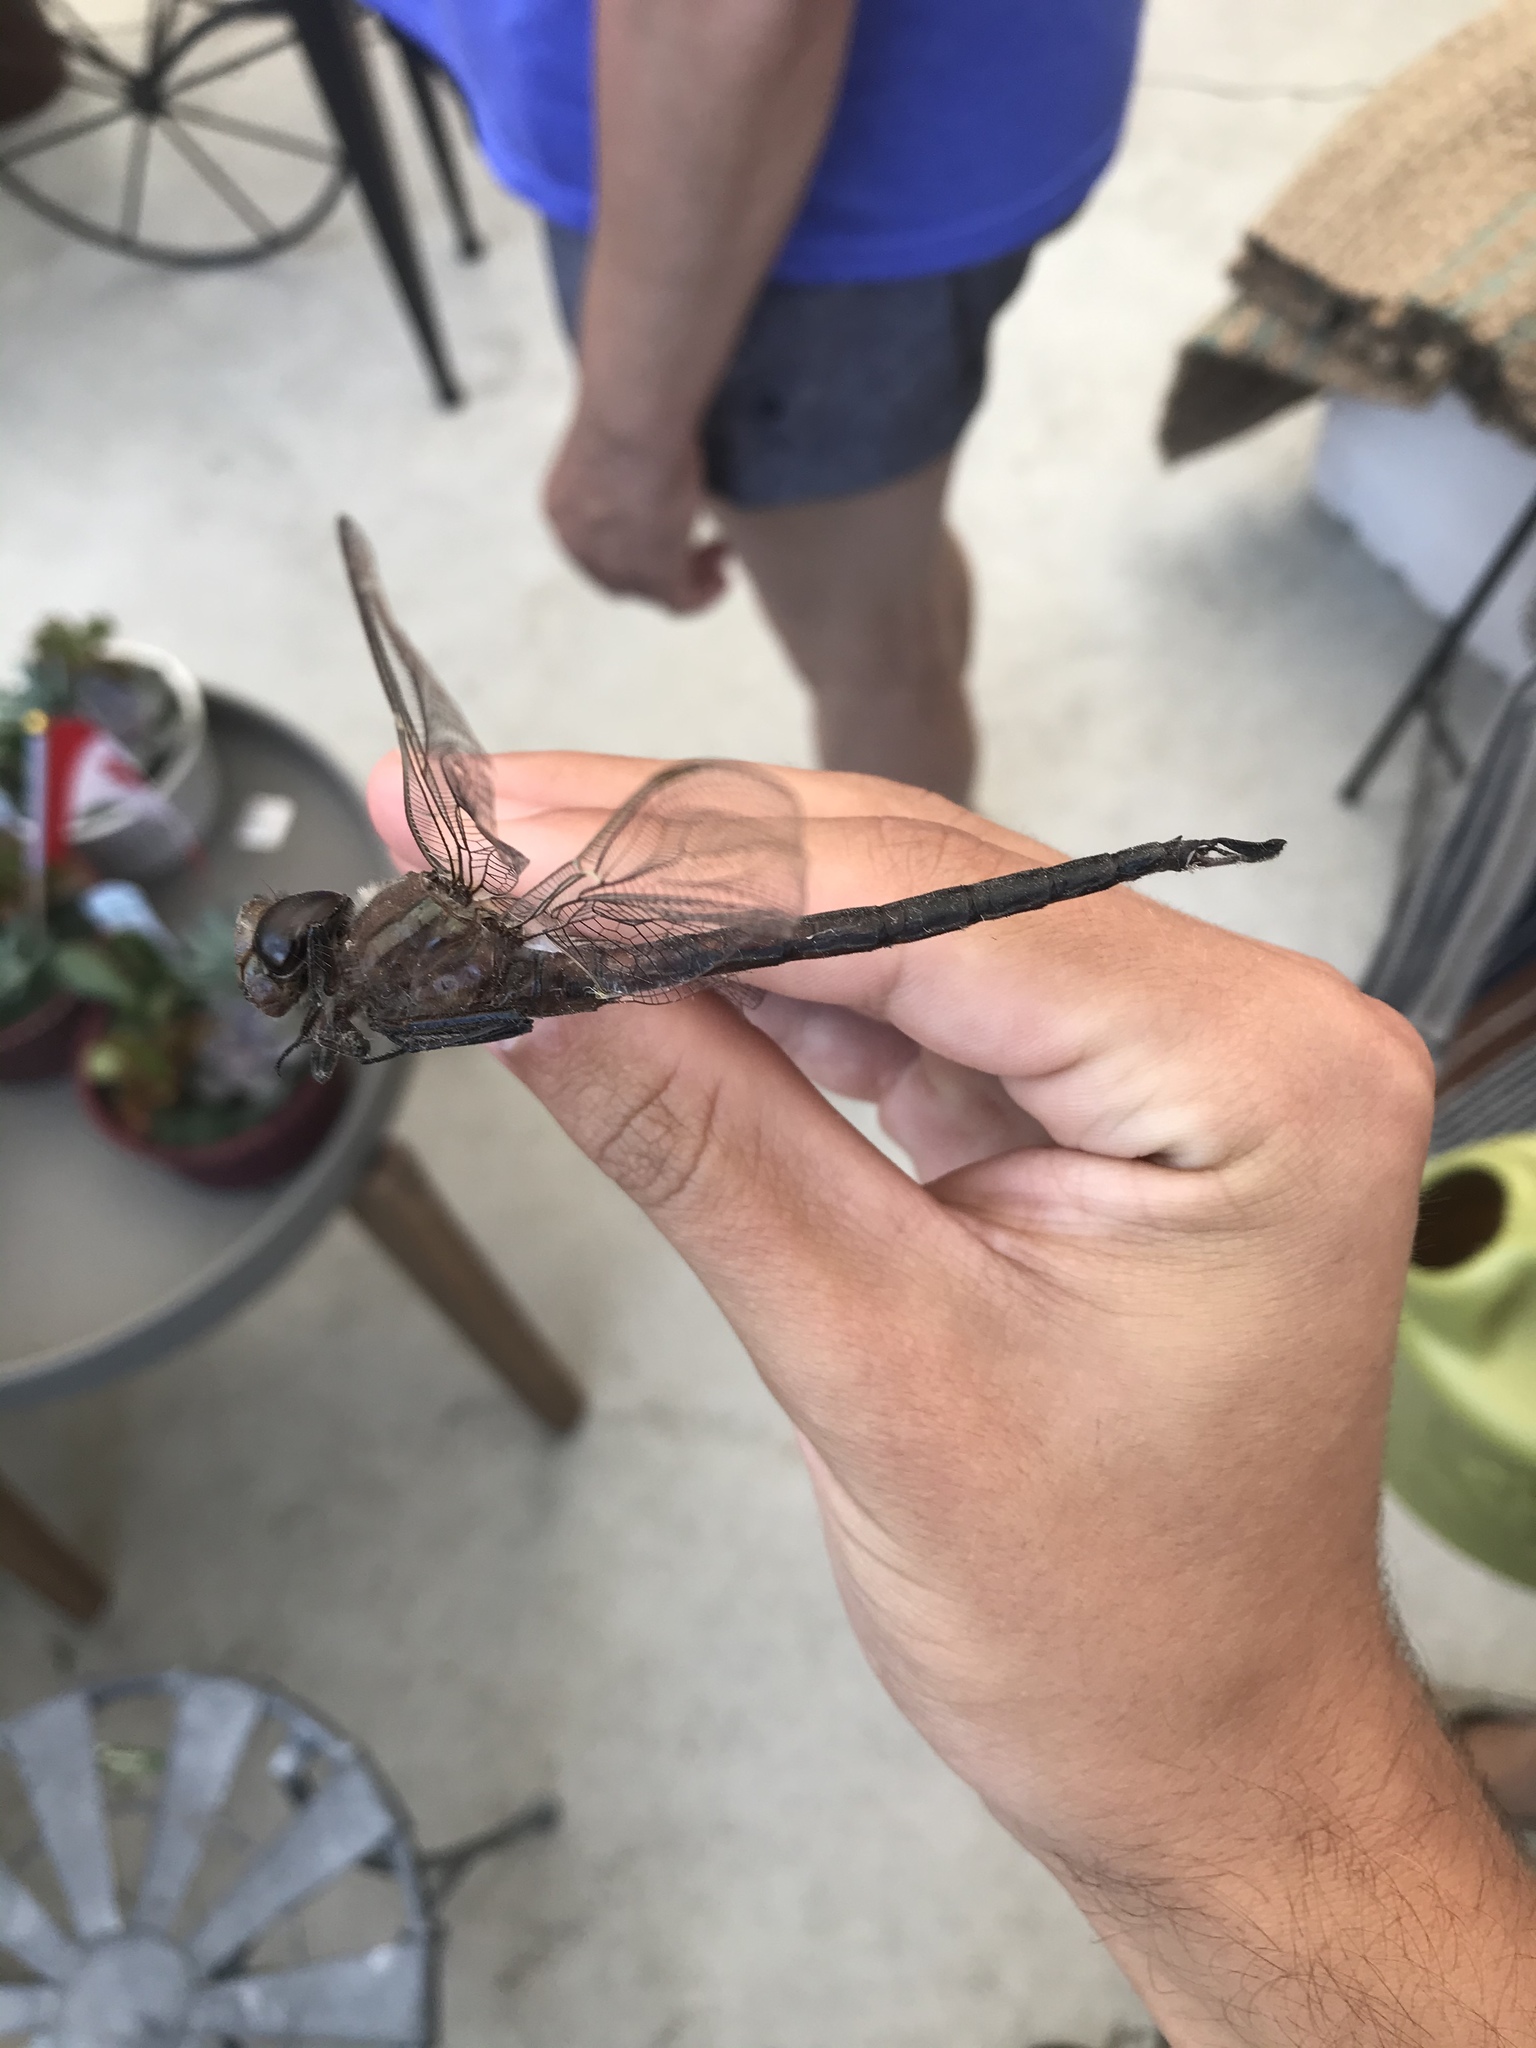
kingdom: Animalia
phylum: Arthropoda
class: Insecta
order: Odonata
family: Aeshnidae
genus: Epiaeschna
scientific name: Epiaeschna heros
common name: Swamp darner
